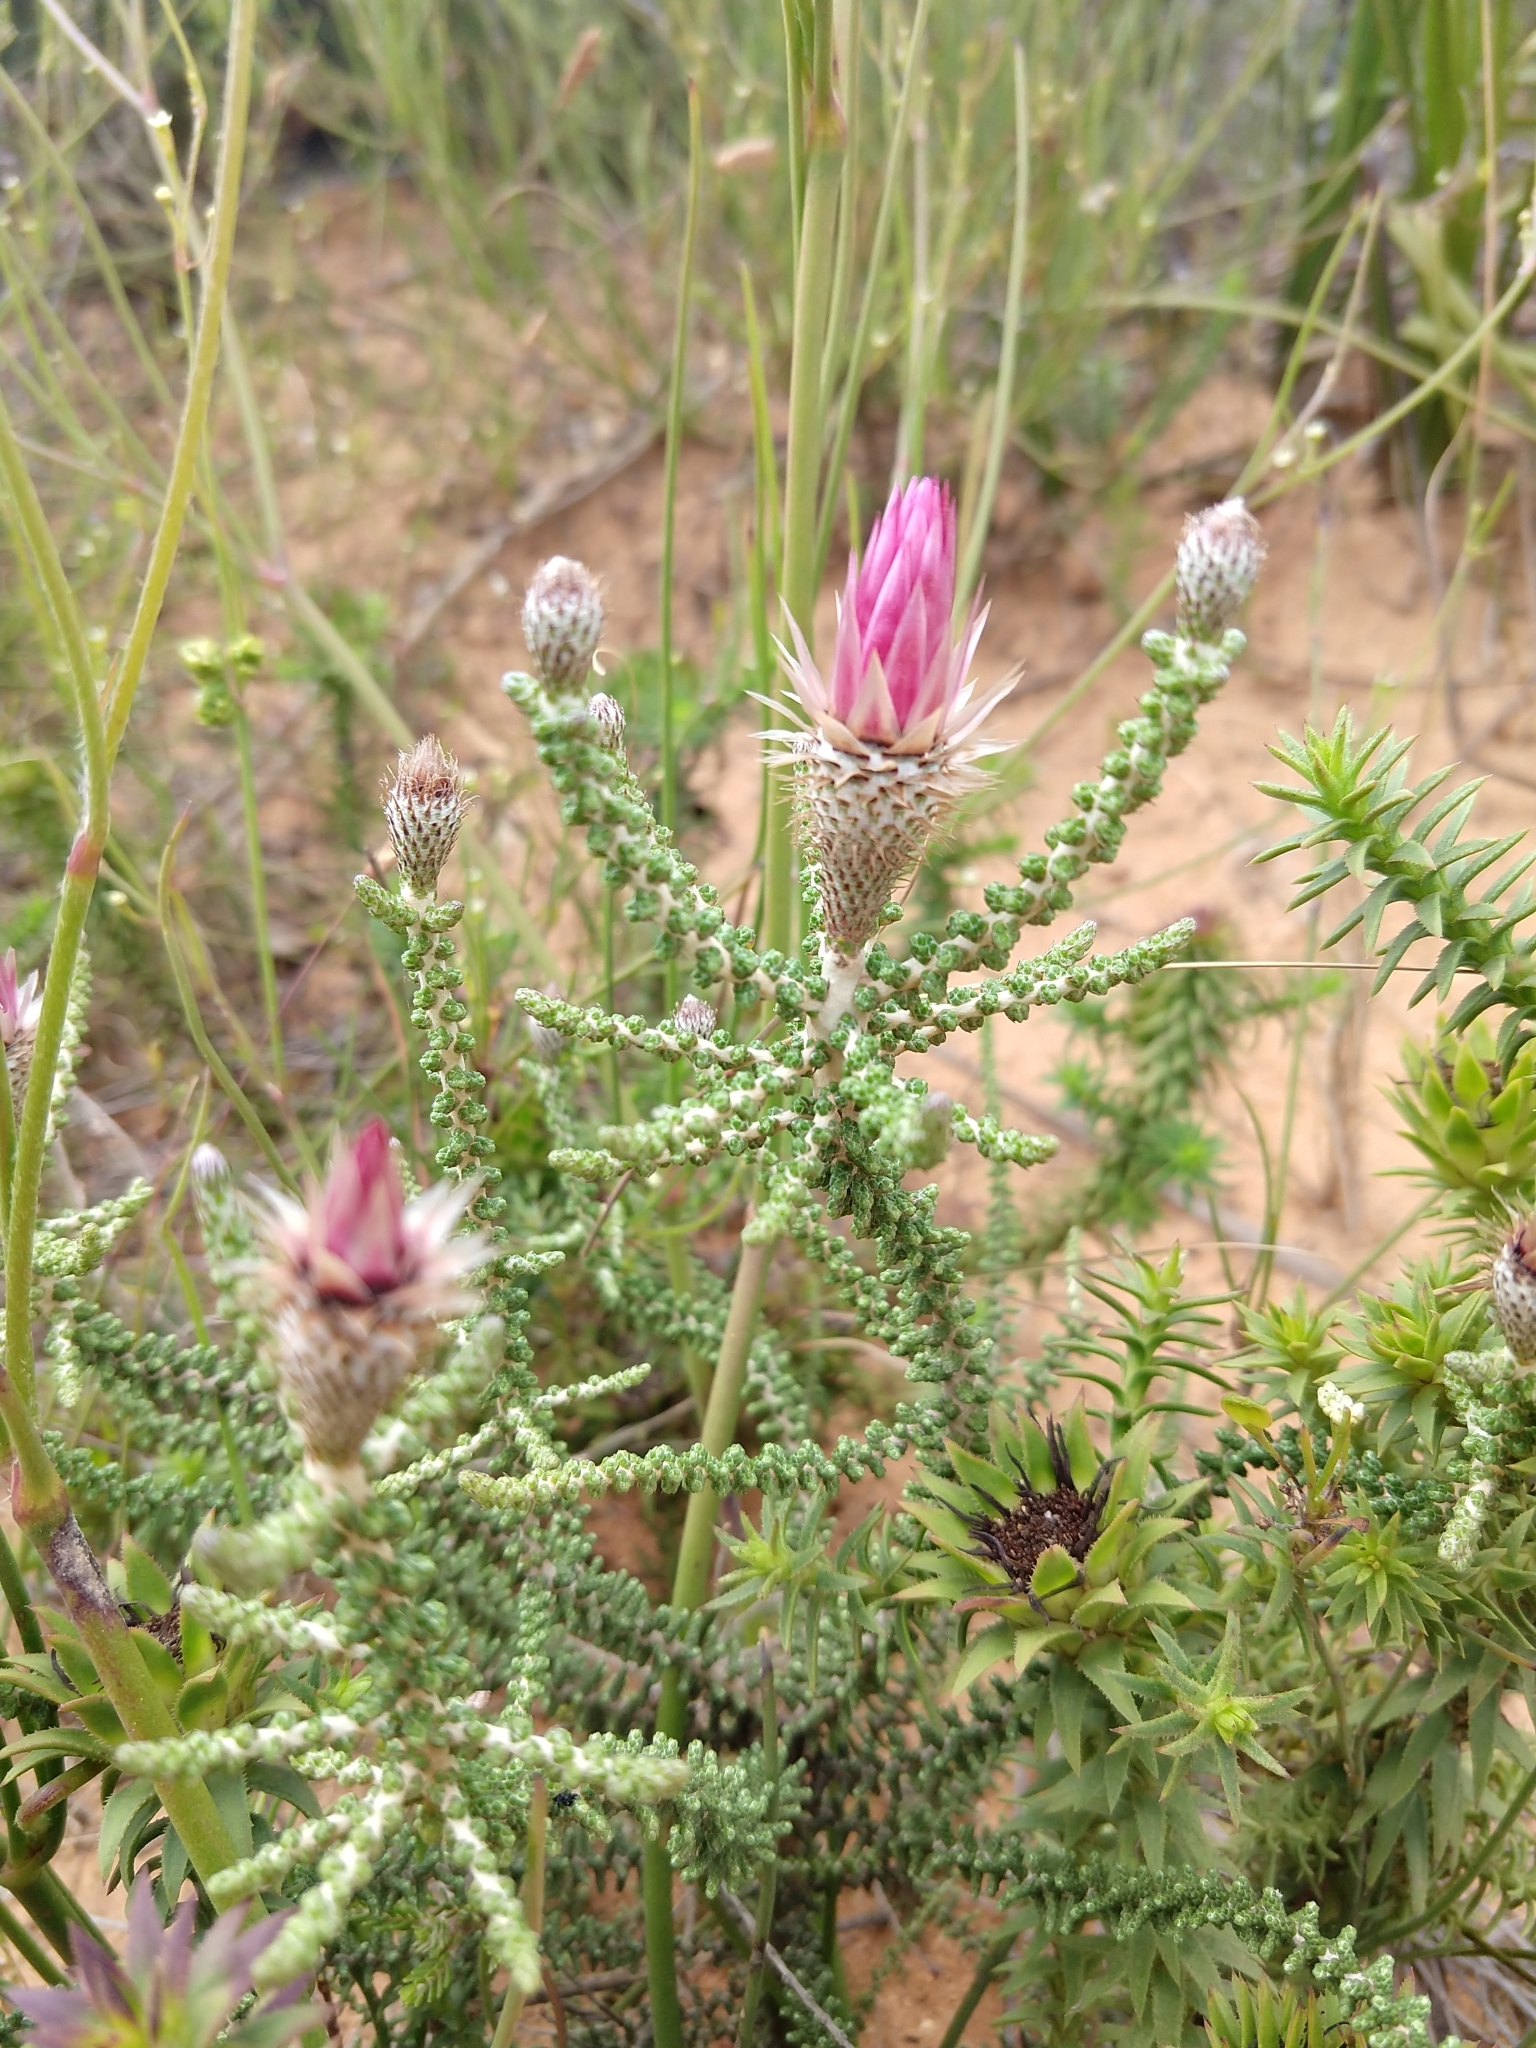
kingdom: Plantae
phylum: Tracheophyta
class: Magnoliopsida
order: Asterales
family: Asteraceae
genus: Phaenocoma
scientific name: Phaenocoma prolifera
